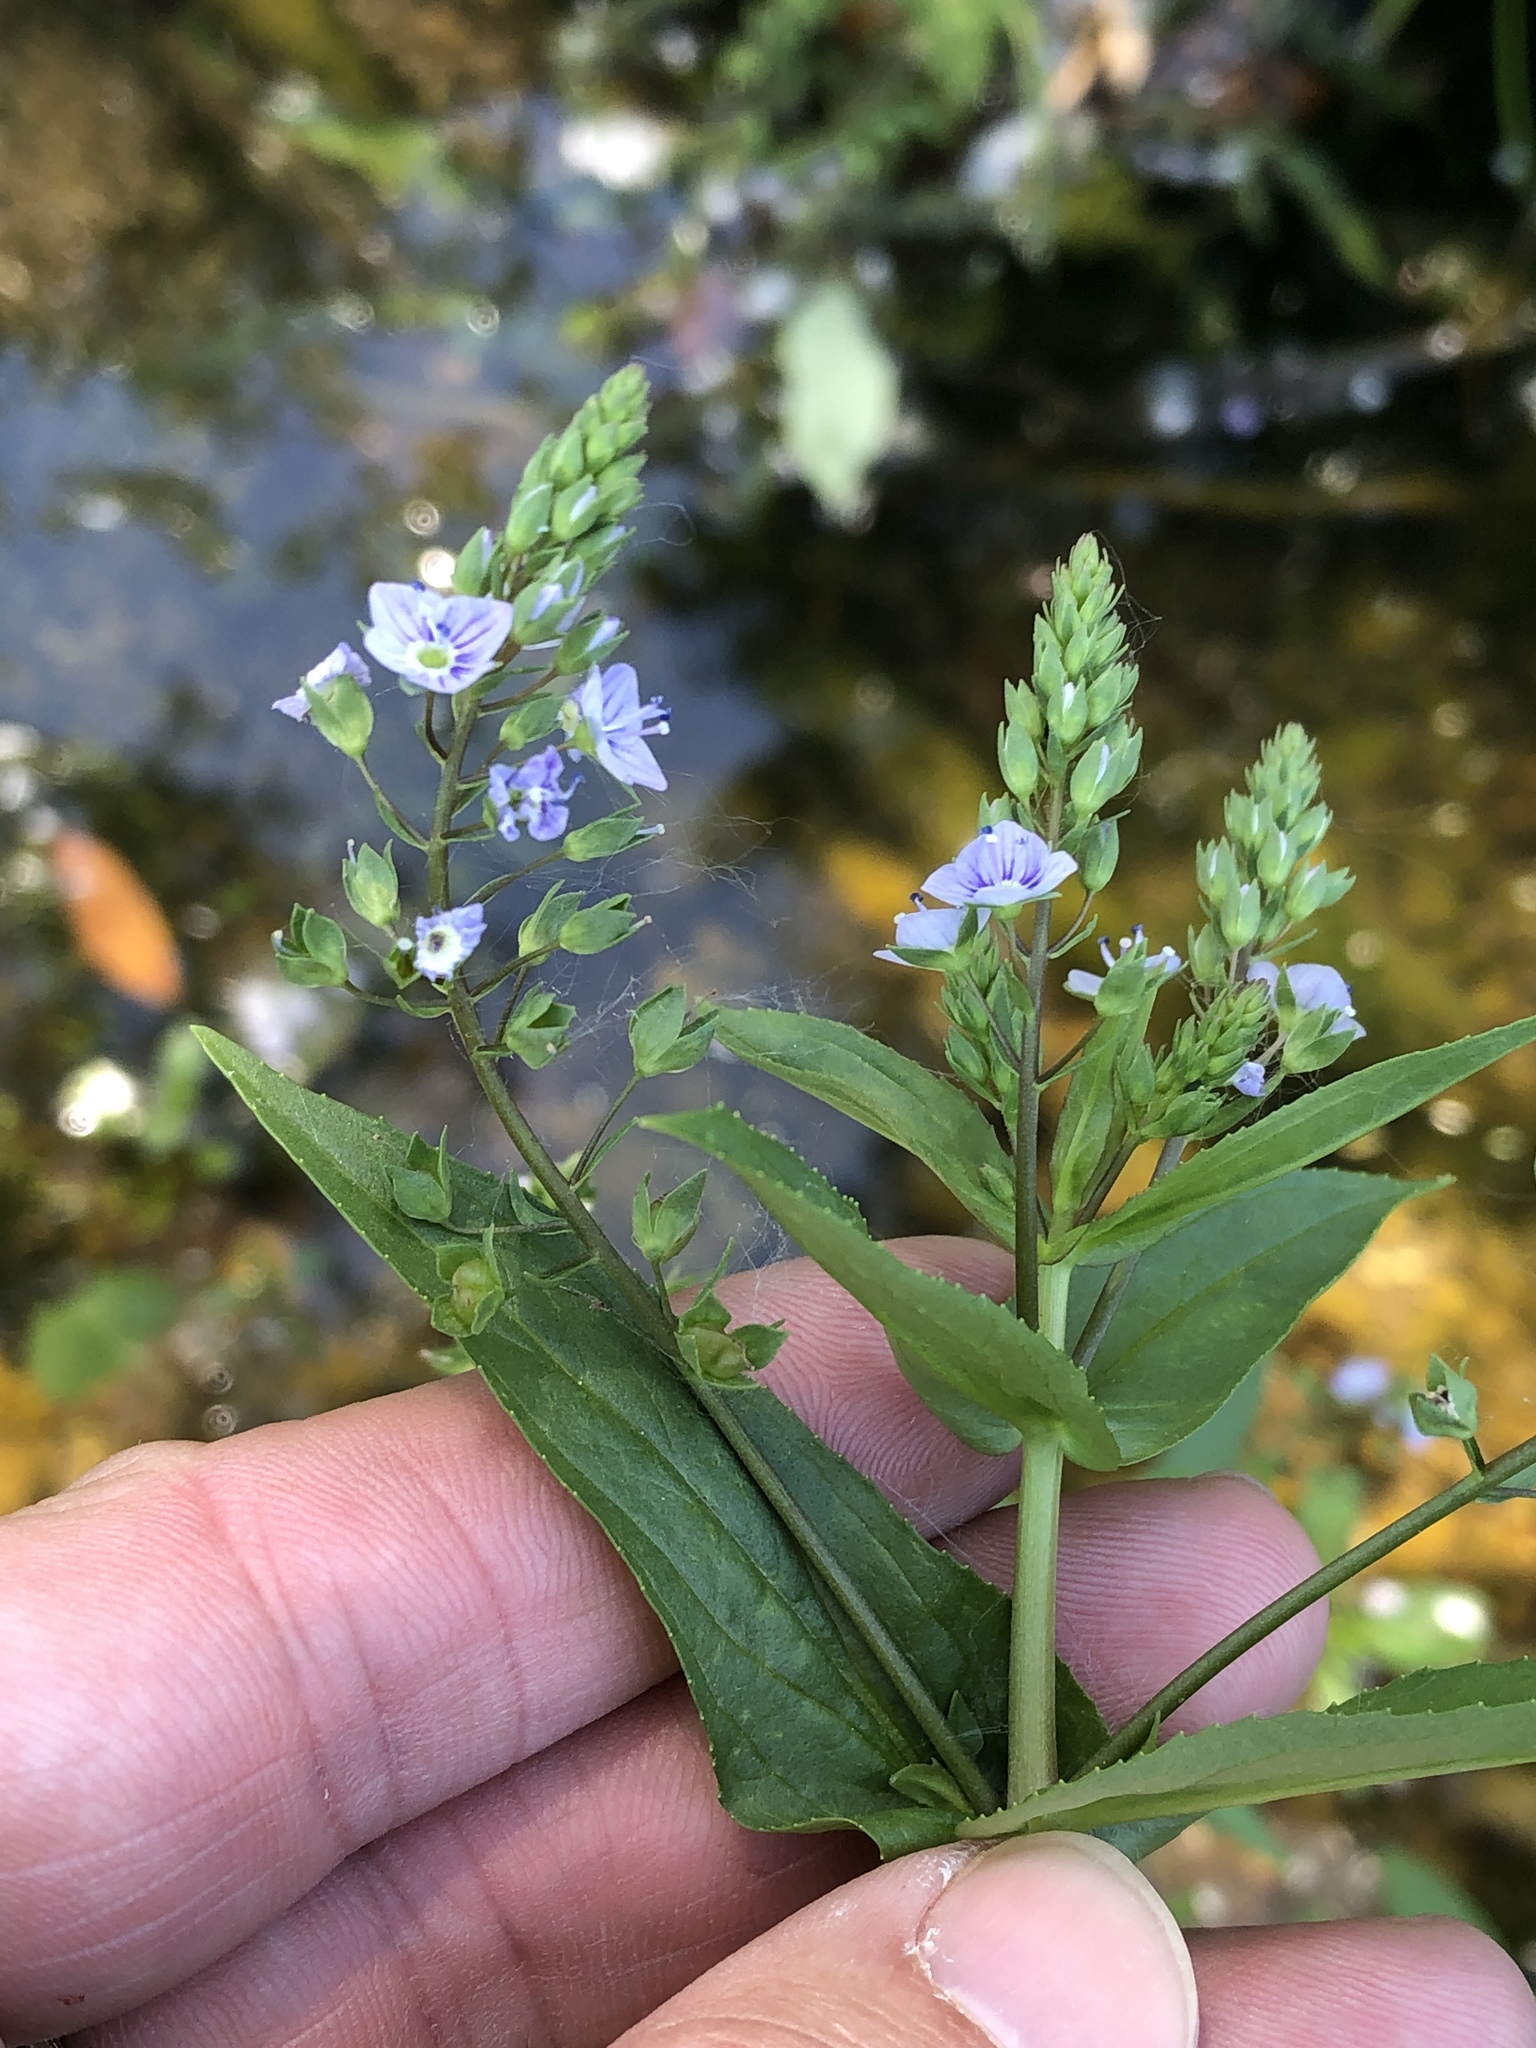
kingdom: Plantae
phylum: Tracheophyta
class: Magnoliopsida
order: Lamiales
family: Plantaginaceae
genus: Veronica
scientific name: Veronica anagallis-aquatica
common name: Water speedwell
